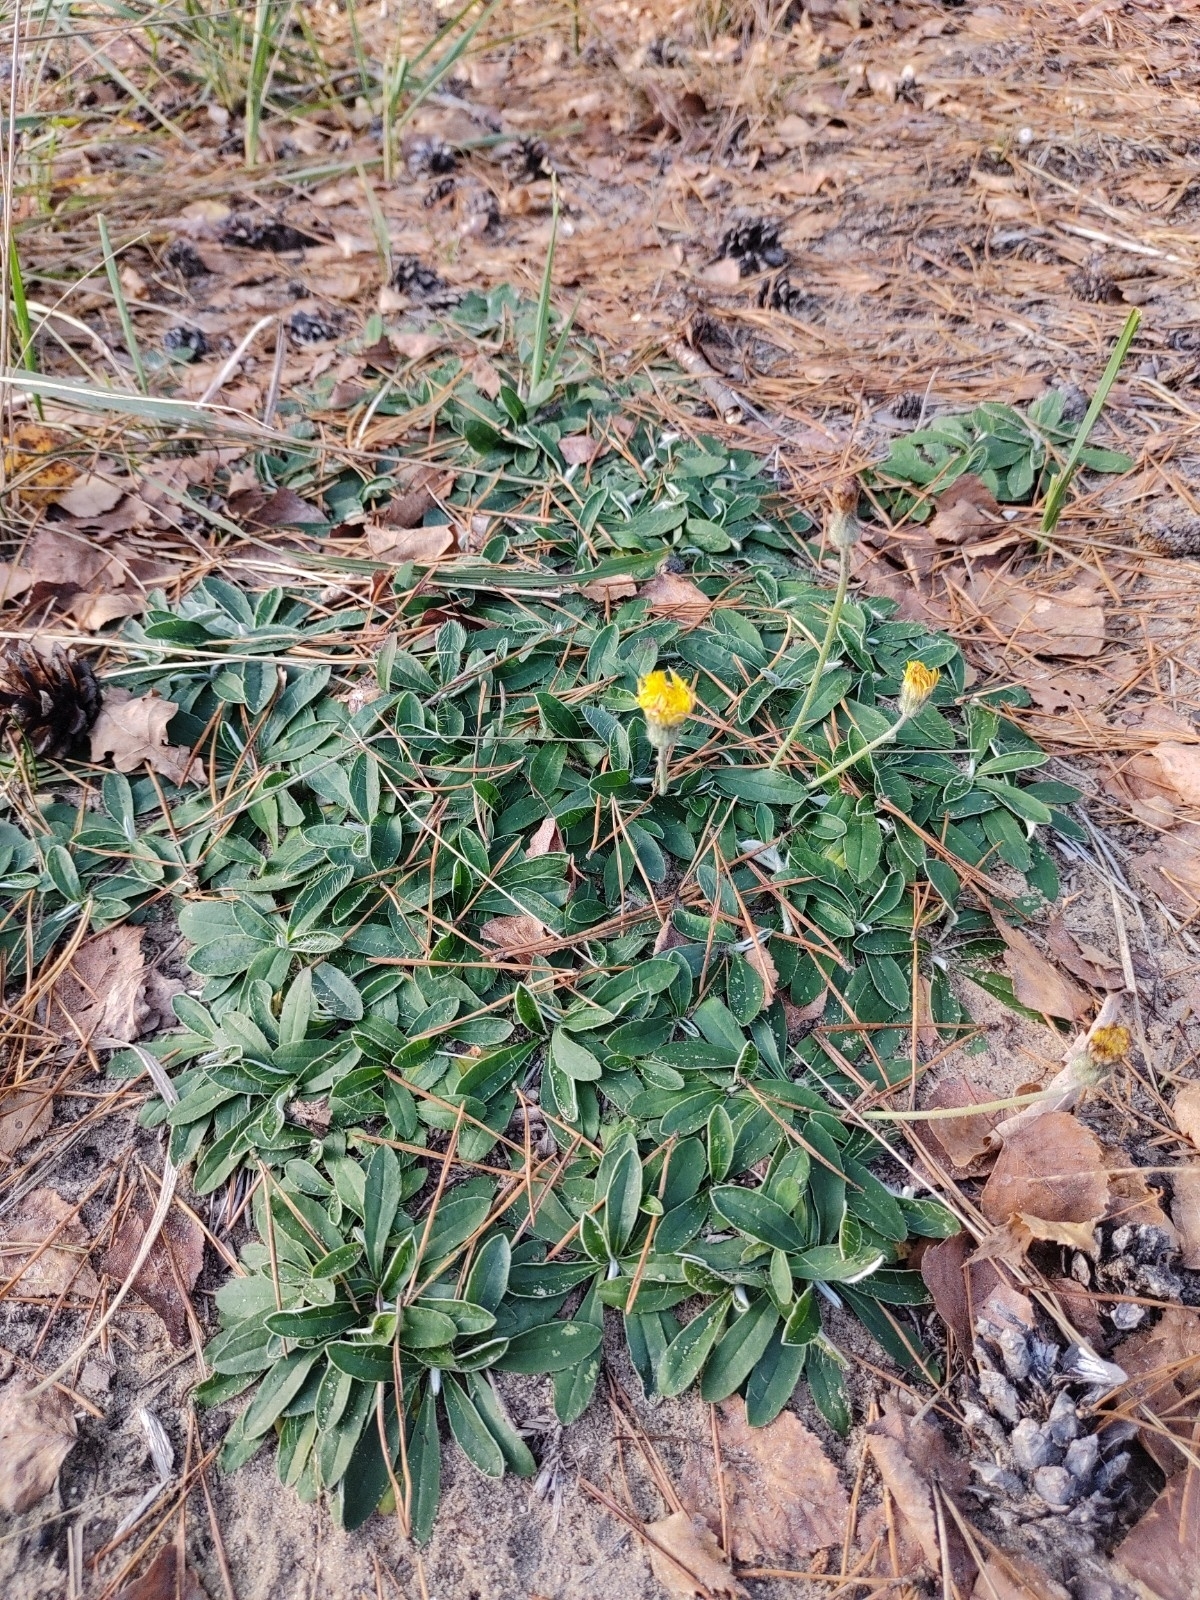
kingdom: Plantae
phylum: Tracheophyta
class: Magnoliopsida
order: Asterales
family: Asteraceae
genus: Pilosella
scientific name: Pilosella officinarum
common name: Mouse-ear hawkweed
